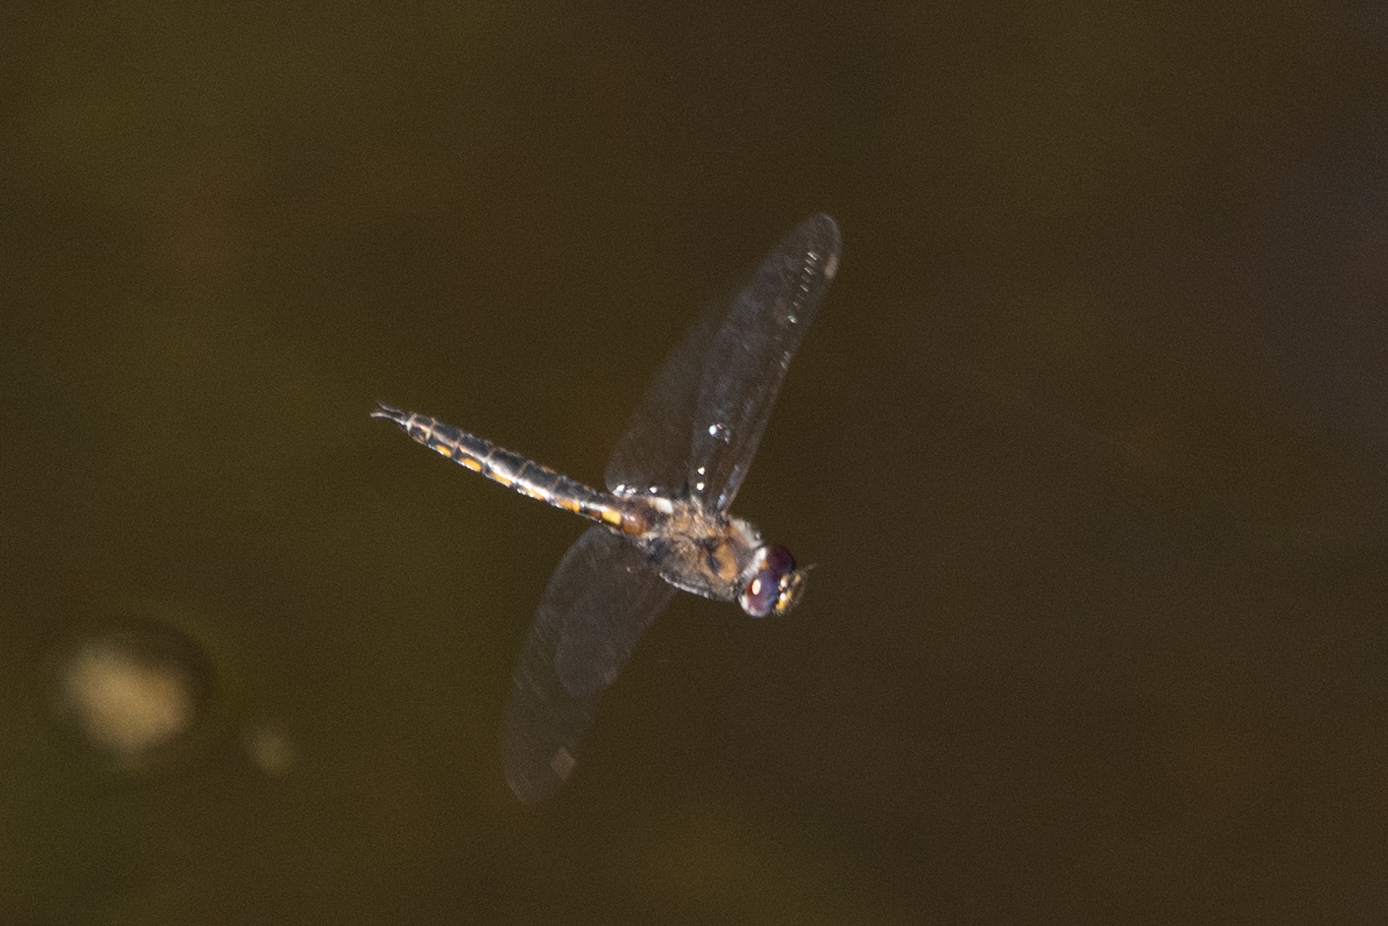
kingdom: Animalia
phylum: Arthropoda
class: Insecta
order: Odonata
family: Corduliidae
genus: Epitheca
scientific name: Epitheca cynosura
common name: Common baskettail
